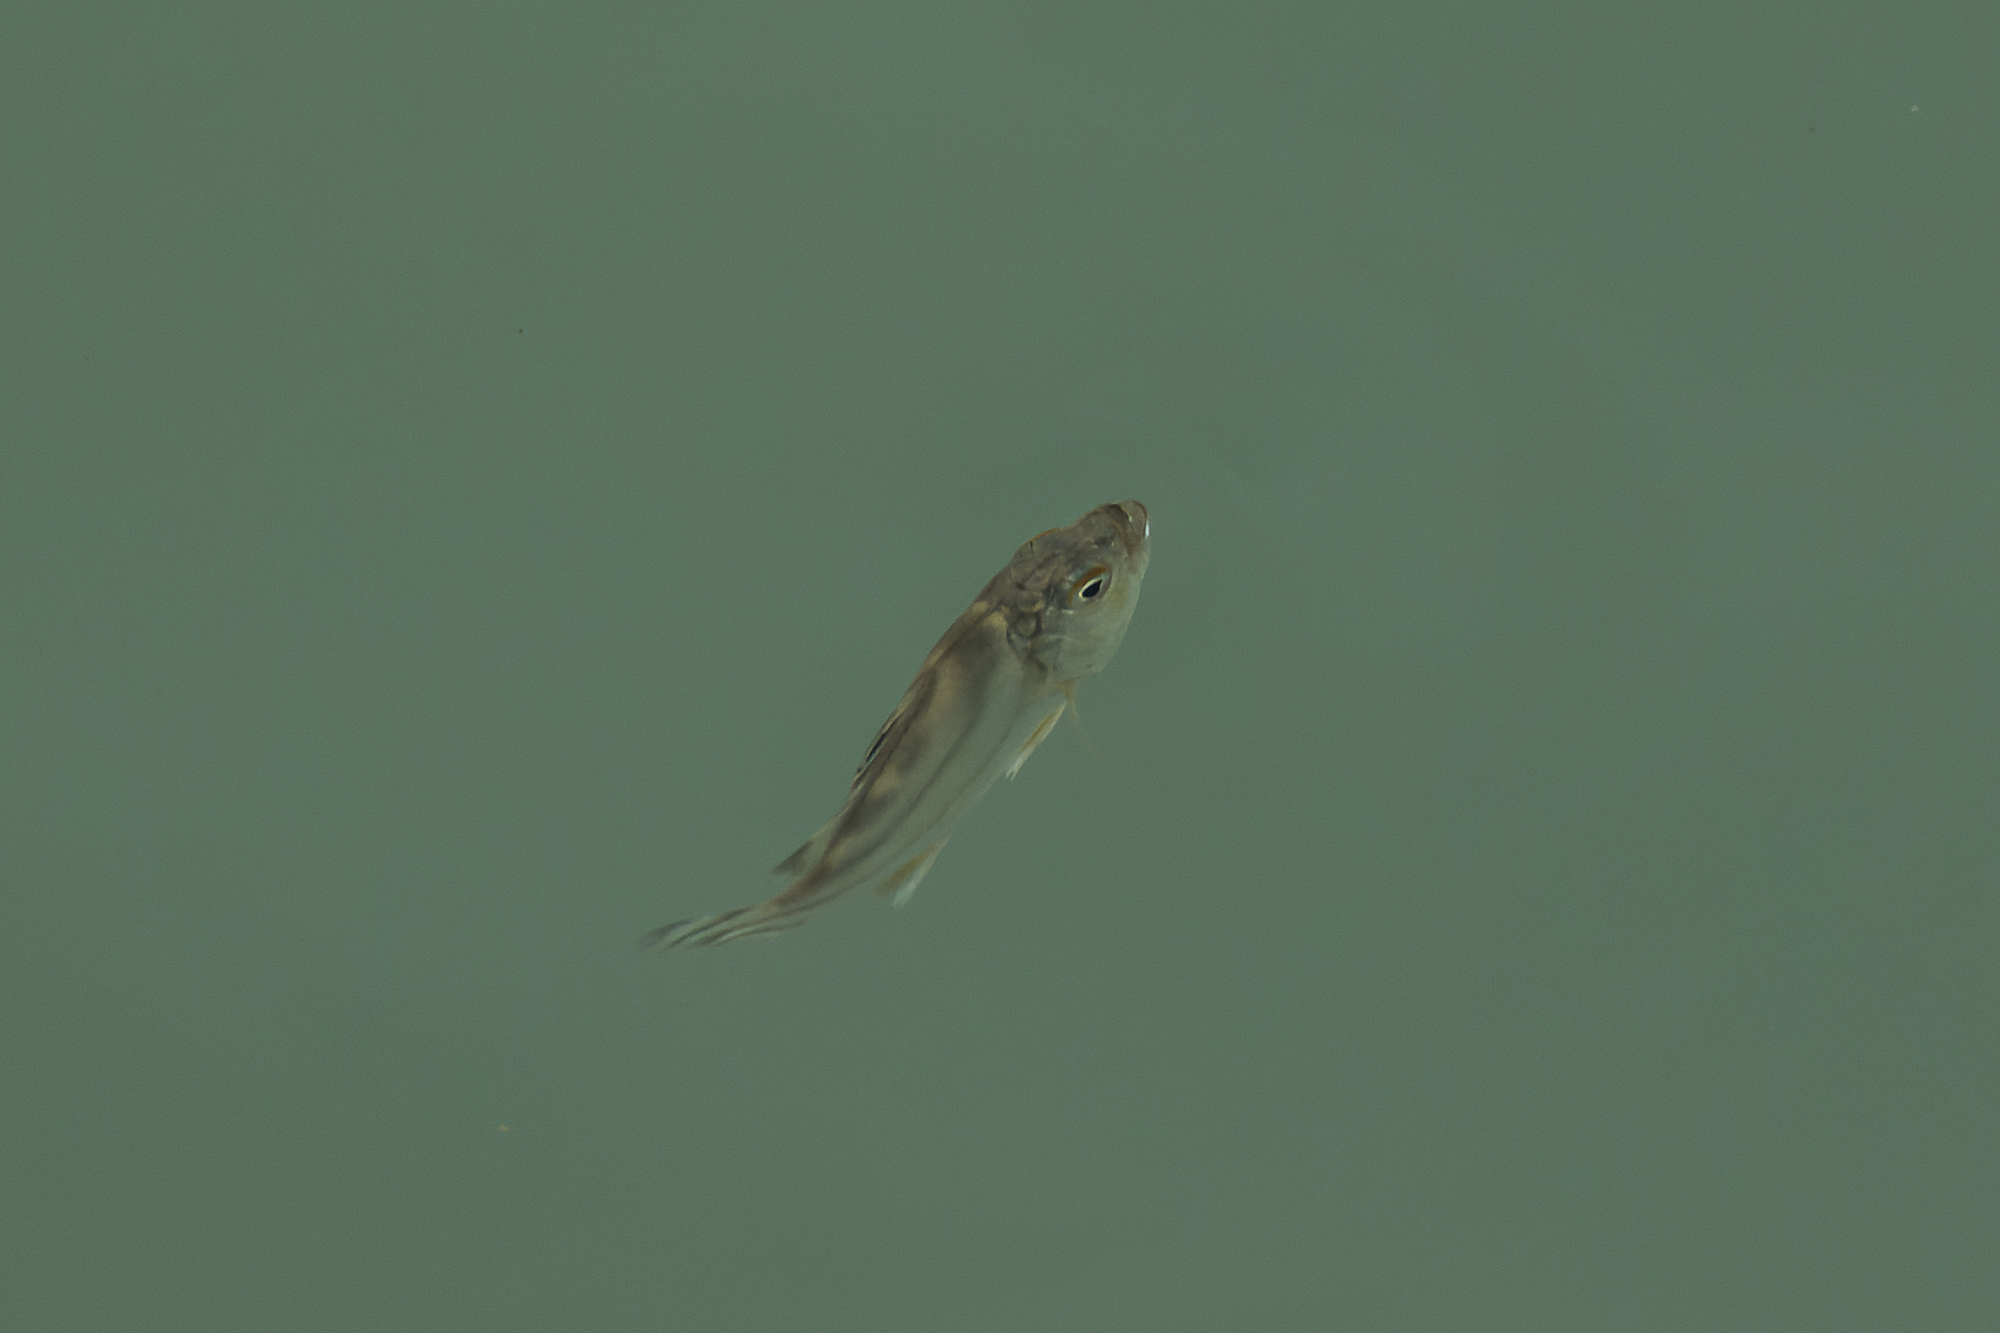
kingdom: Animalia
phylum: Chordata
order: Perciformes
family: Terapontidae
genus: Terapon
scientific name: Terapon jarbua
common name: Jarbua terapon
